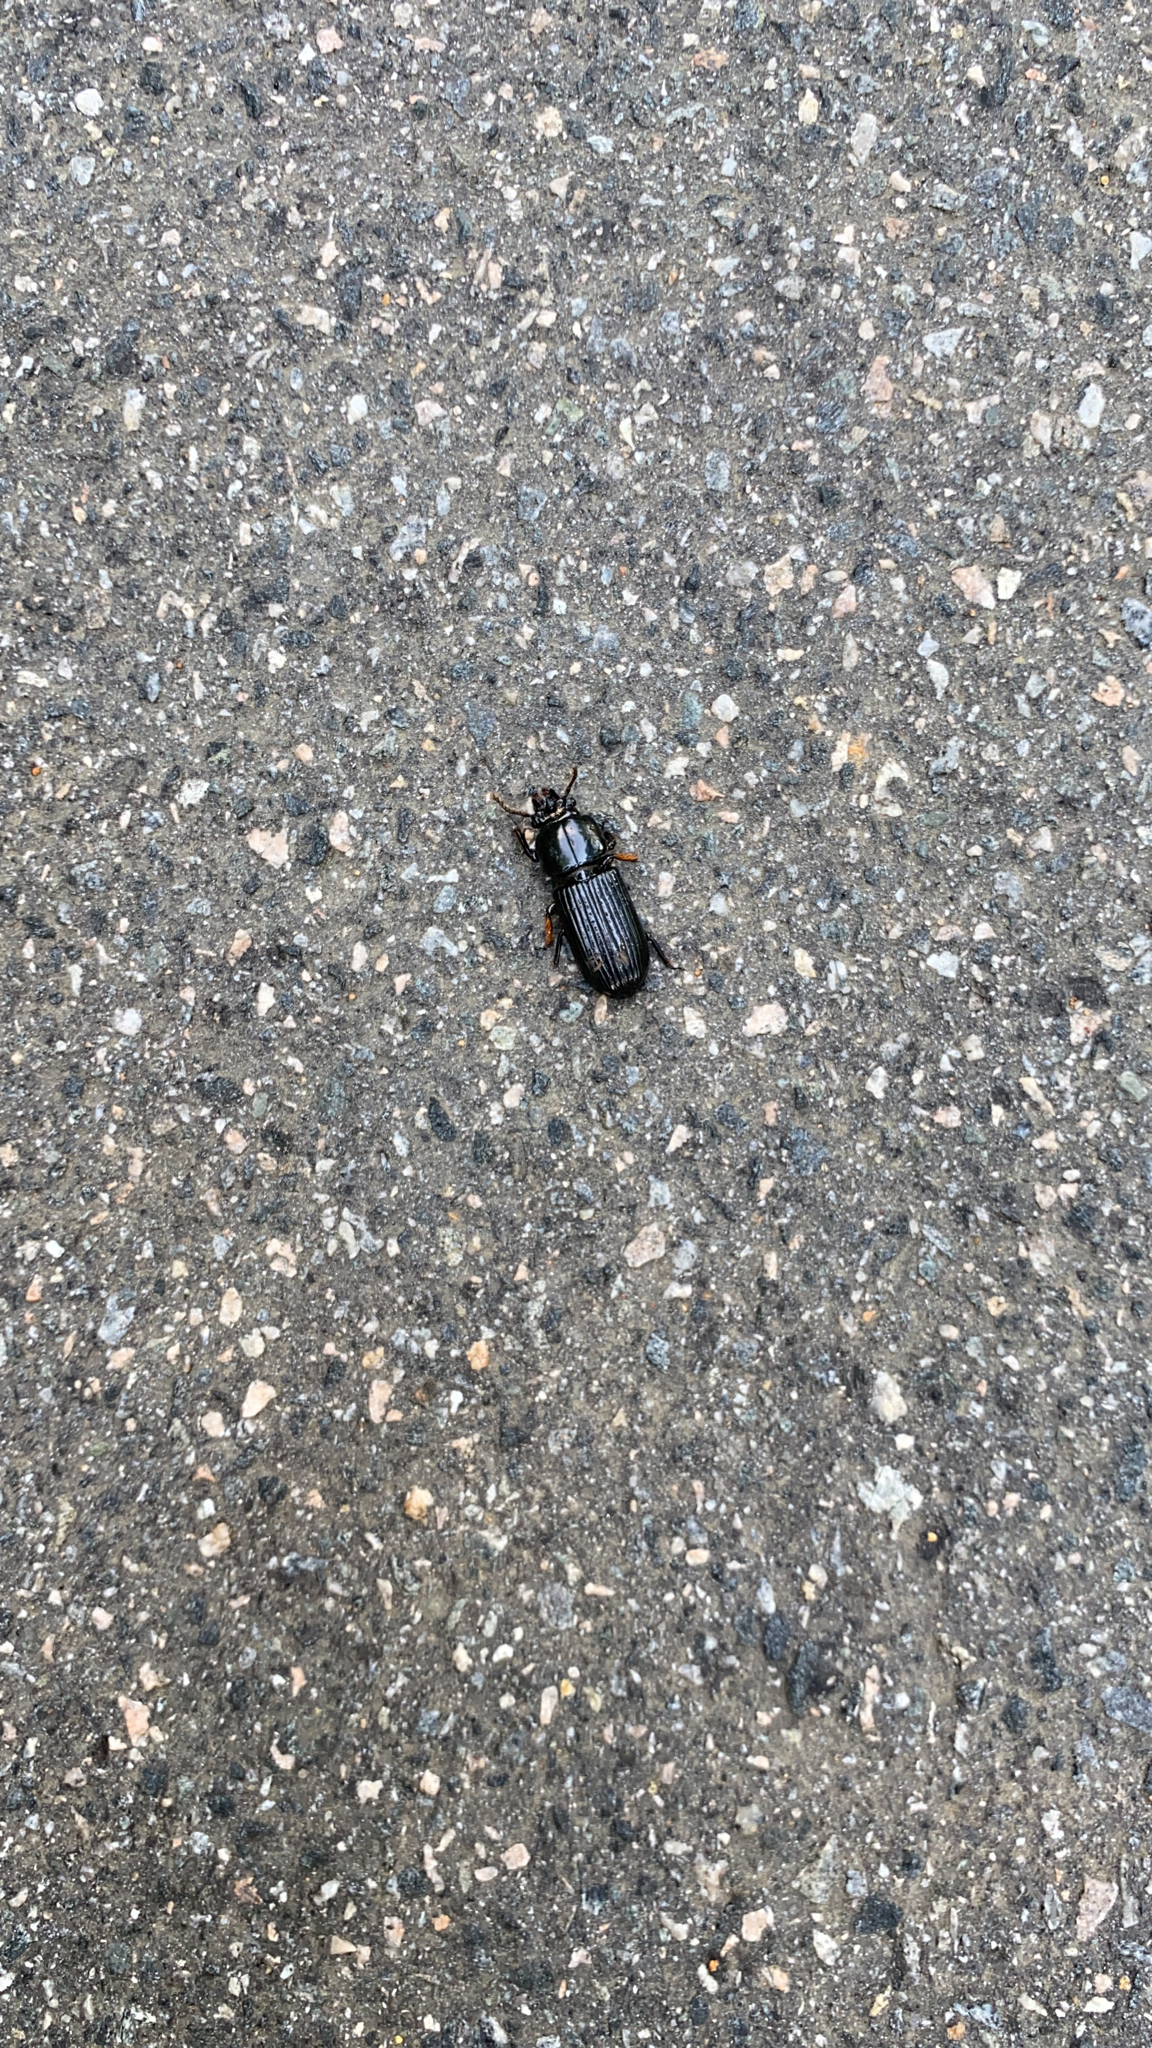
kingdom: Animalia
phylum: Arthropoda
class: Insecta
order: Coleoptera
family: Passalidae
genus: Odontotaenius
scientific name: Odontotaenius disjunctus
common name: Patent leather beetle
